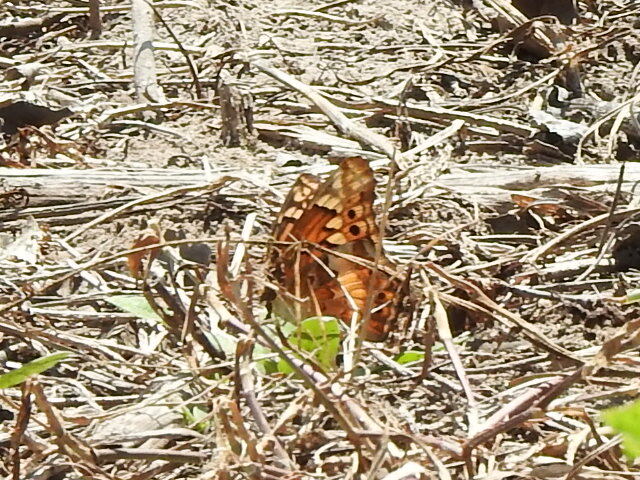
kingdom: Animalia
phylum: Arthropoda
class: Insecta
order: Lepidoptera
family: Nymphalidae
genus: Euptoieta
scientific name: Euptoieta claudia
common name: Variegated fritillary
